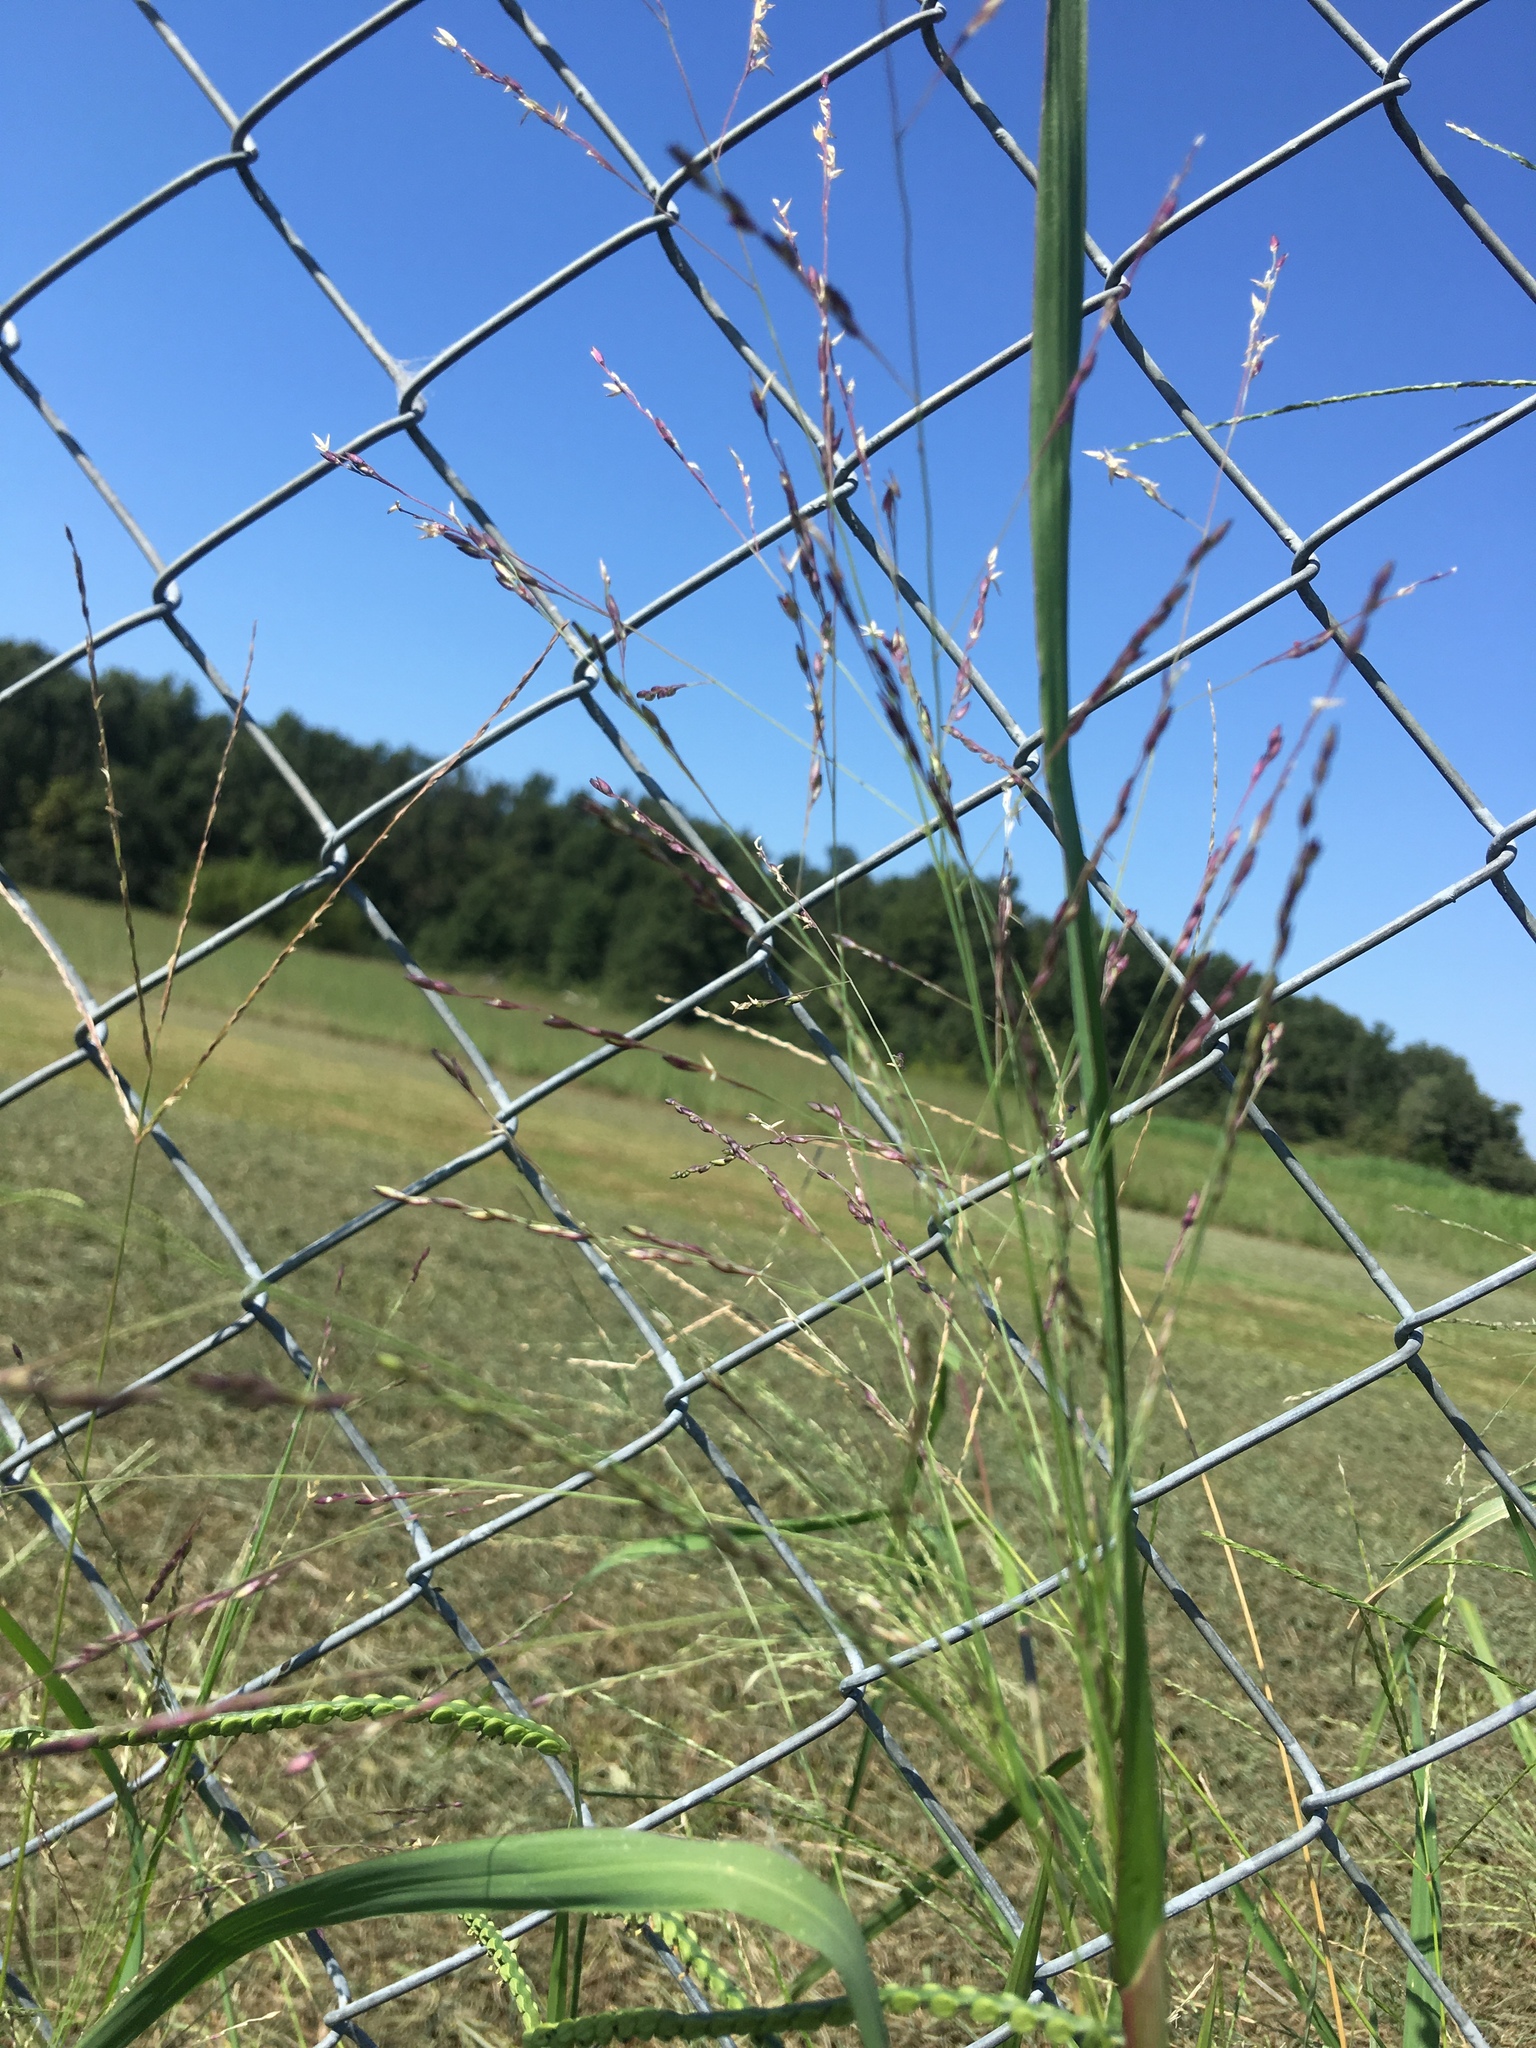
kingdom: Plantae
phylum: Tracheophyta
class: Liliopsida
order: Poales
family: Poaceae
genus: Panicum
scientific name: Panicum virgatum
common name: Switchgrass
